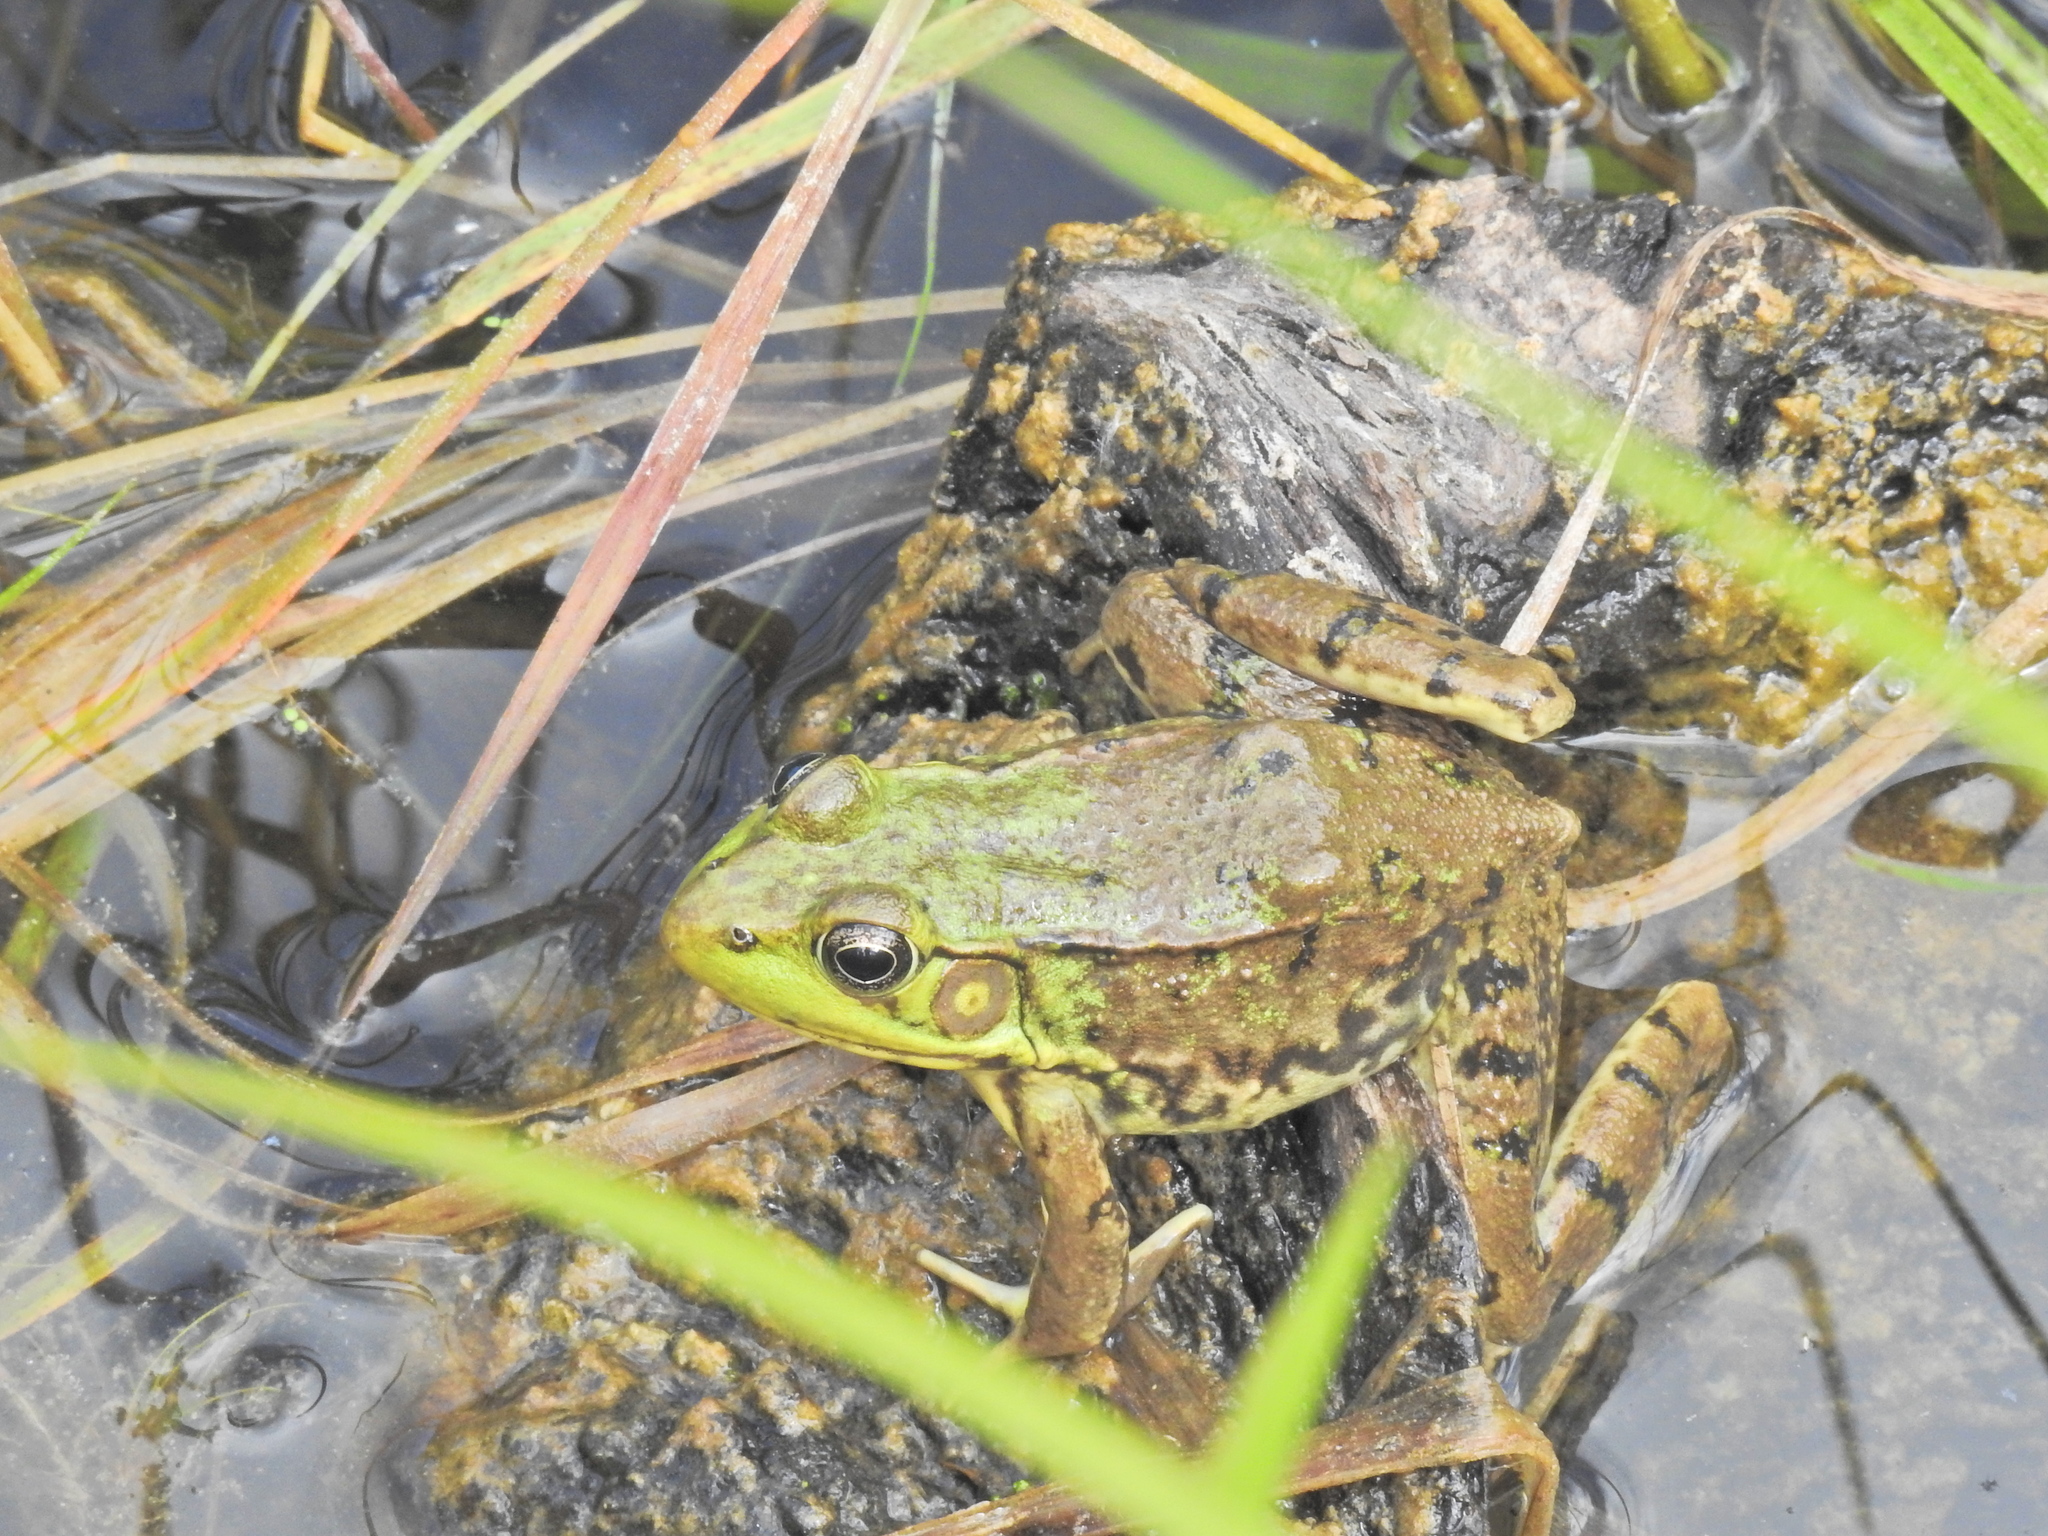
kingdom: Animalia
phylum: Chordata
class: Amphibia
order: Anura
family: Ranidae
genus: Lithobates
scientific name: Lithobates clamitans
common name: Green frog
